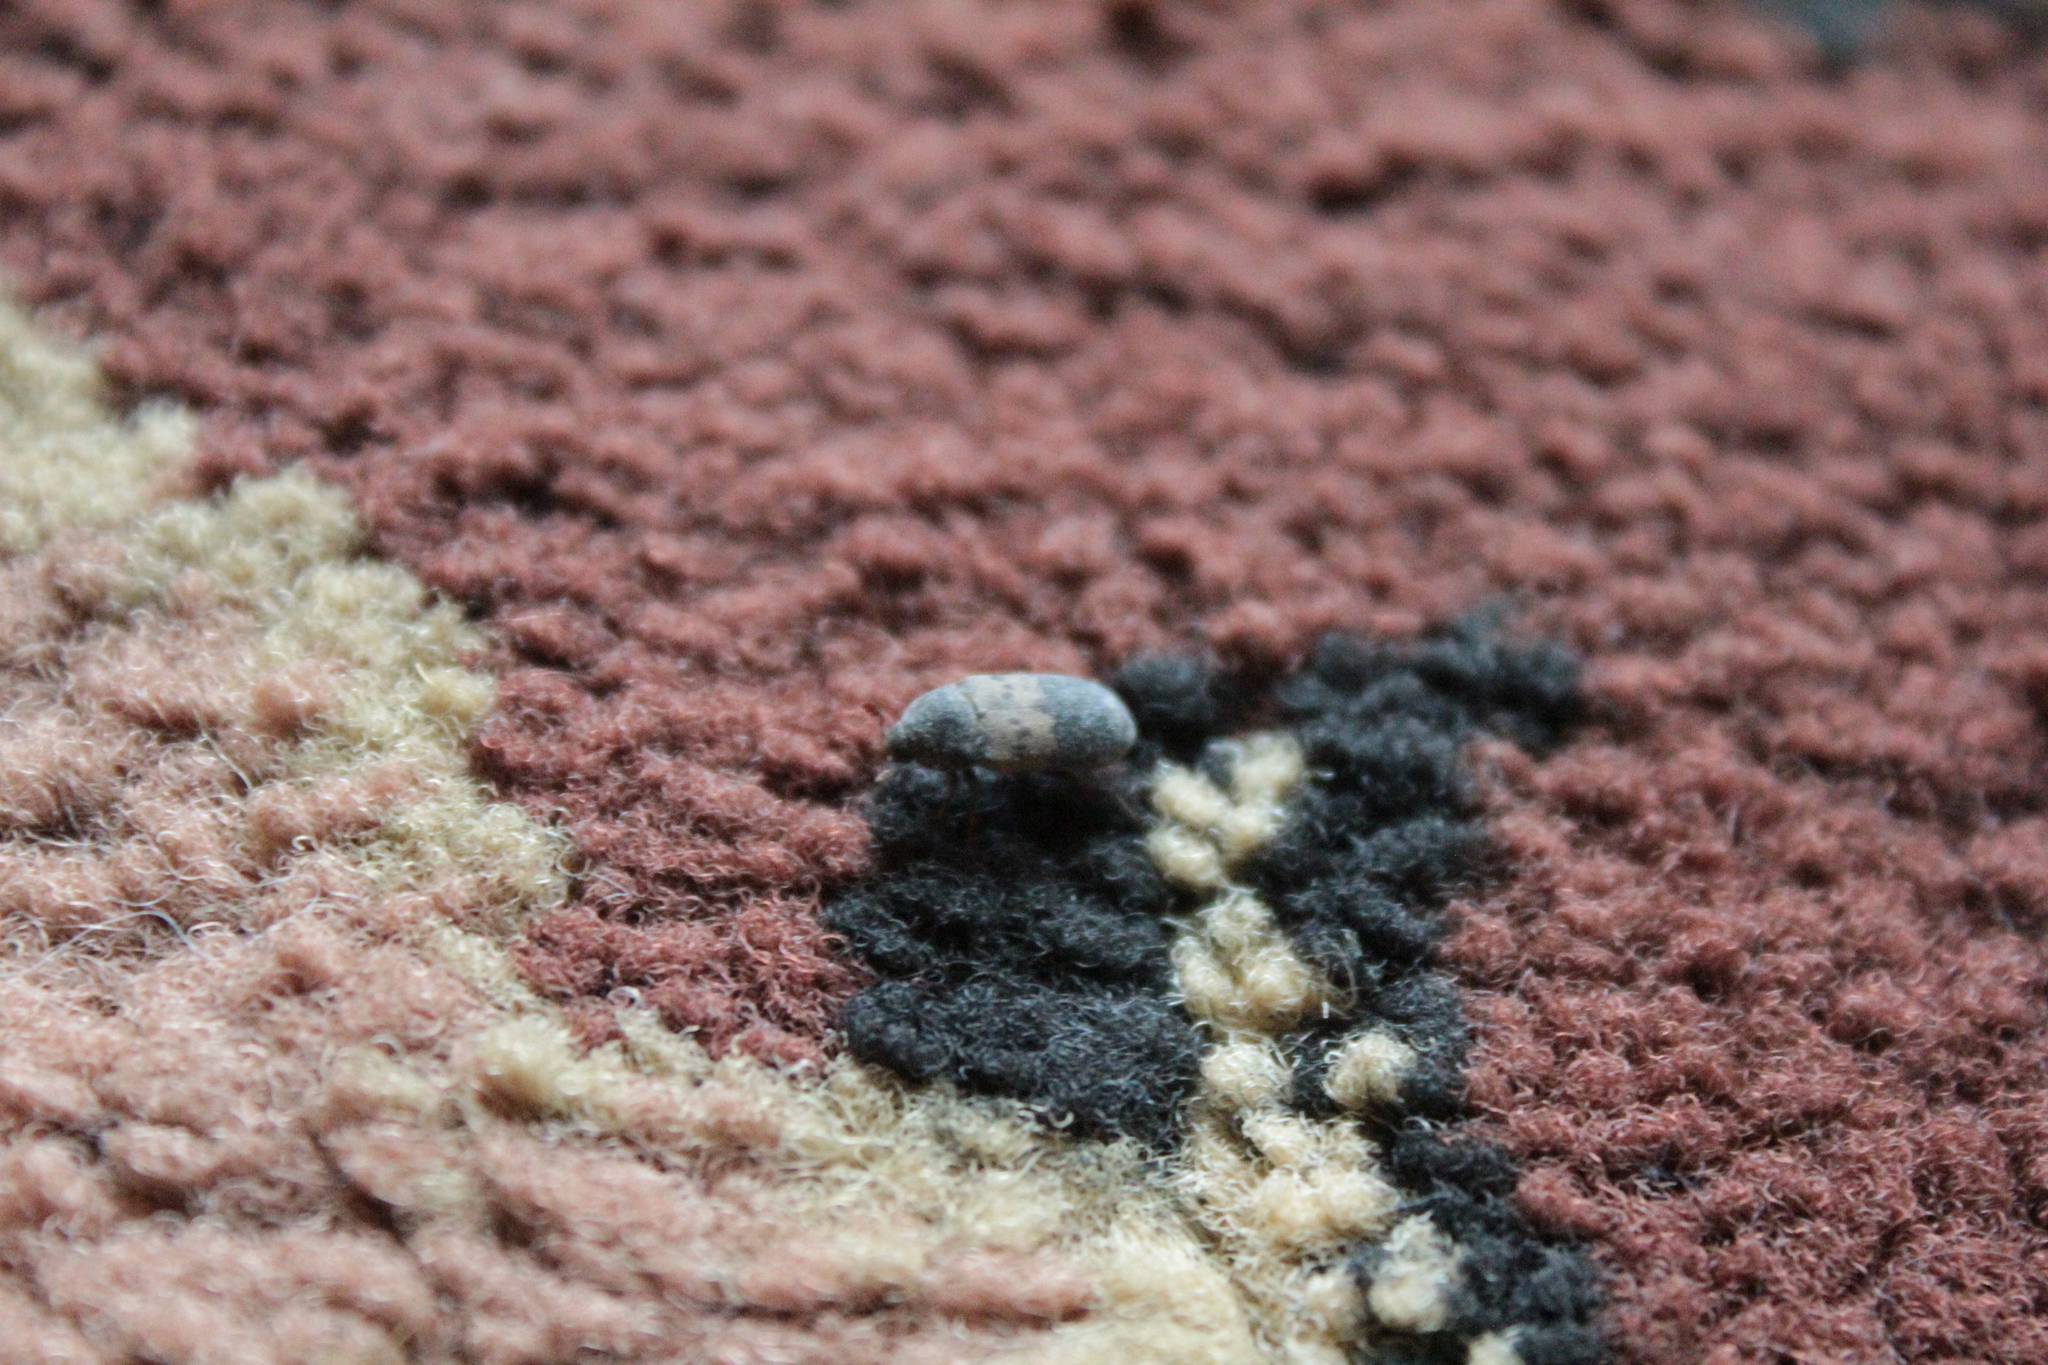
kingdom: Animalia
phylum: Arthropoda
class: Insecta
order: Coleoptera
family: Dermestidae
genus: Dermestes
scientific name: Dermestes lardarius
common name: Larder beetle
